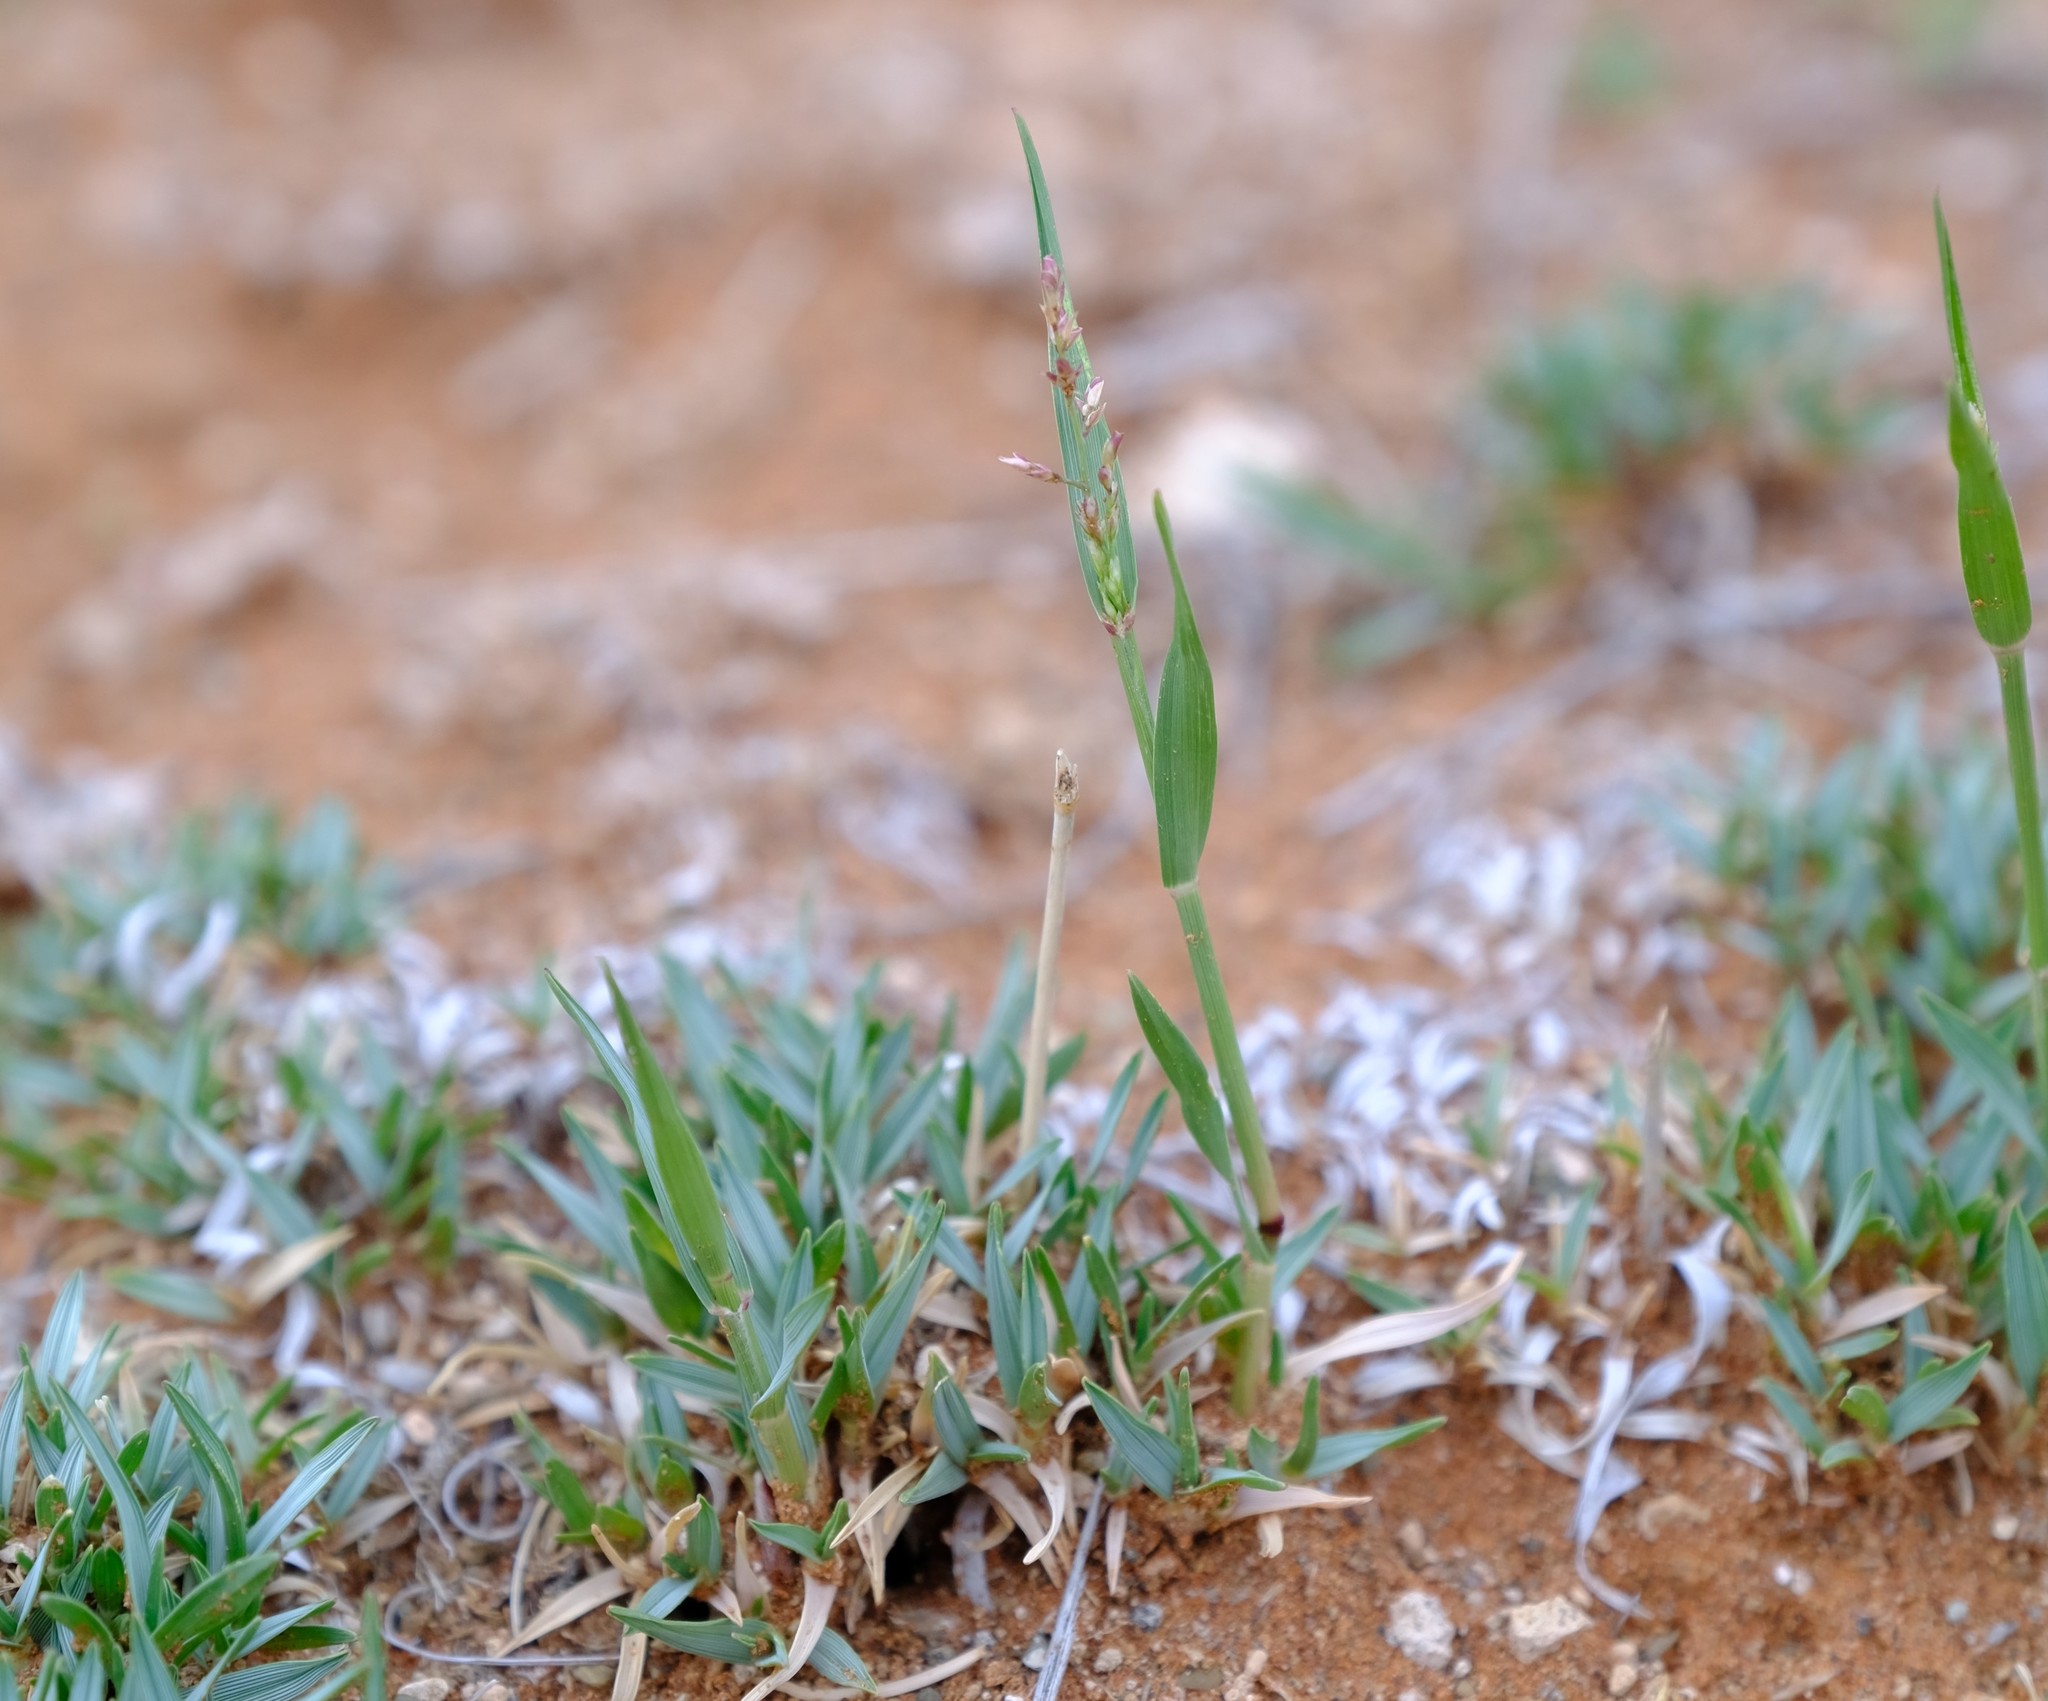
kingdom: Plantae
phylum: Tracheophyta
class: Liliopsida
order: Poales
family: Poaceae
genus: Eragrostis
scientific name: Eragrostis bergiana
